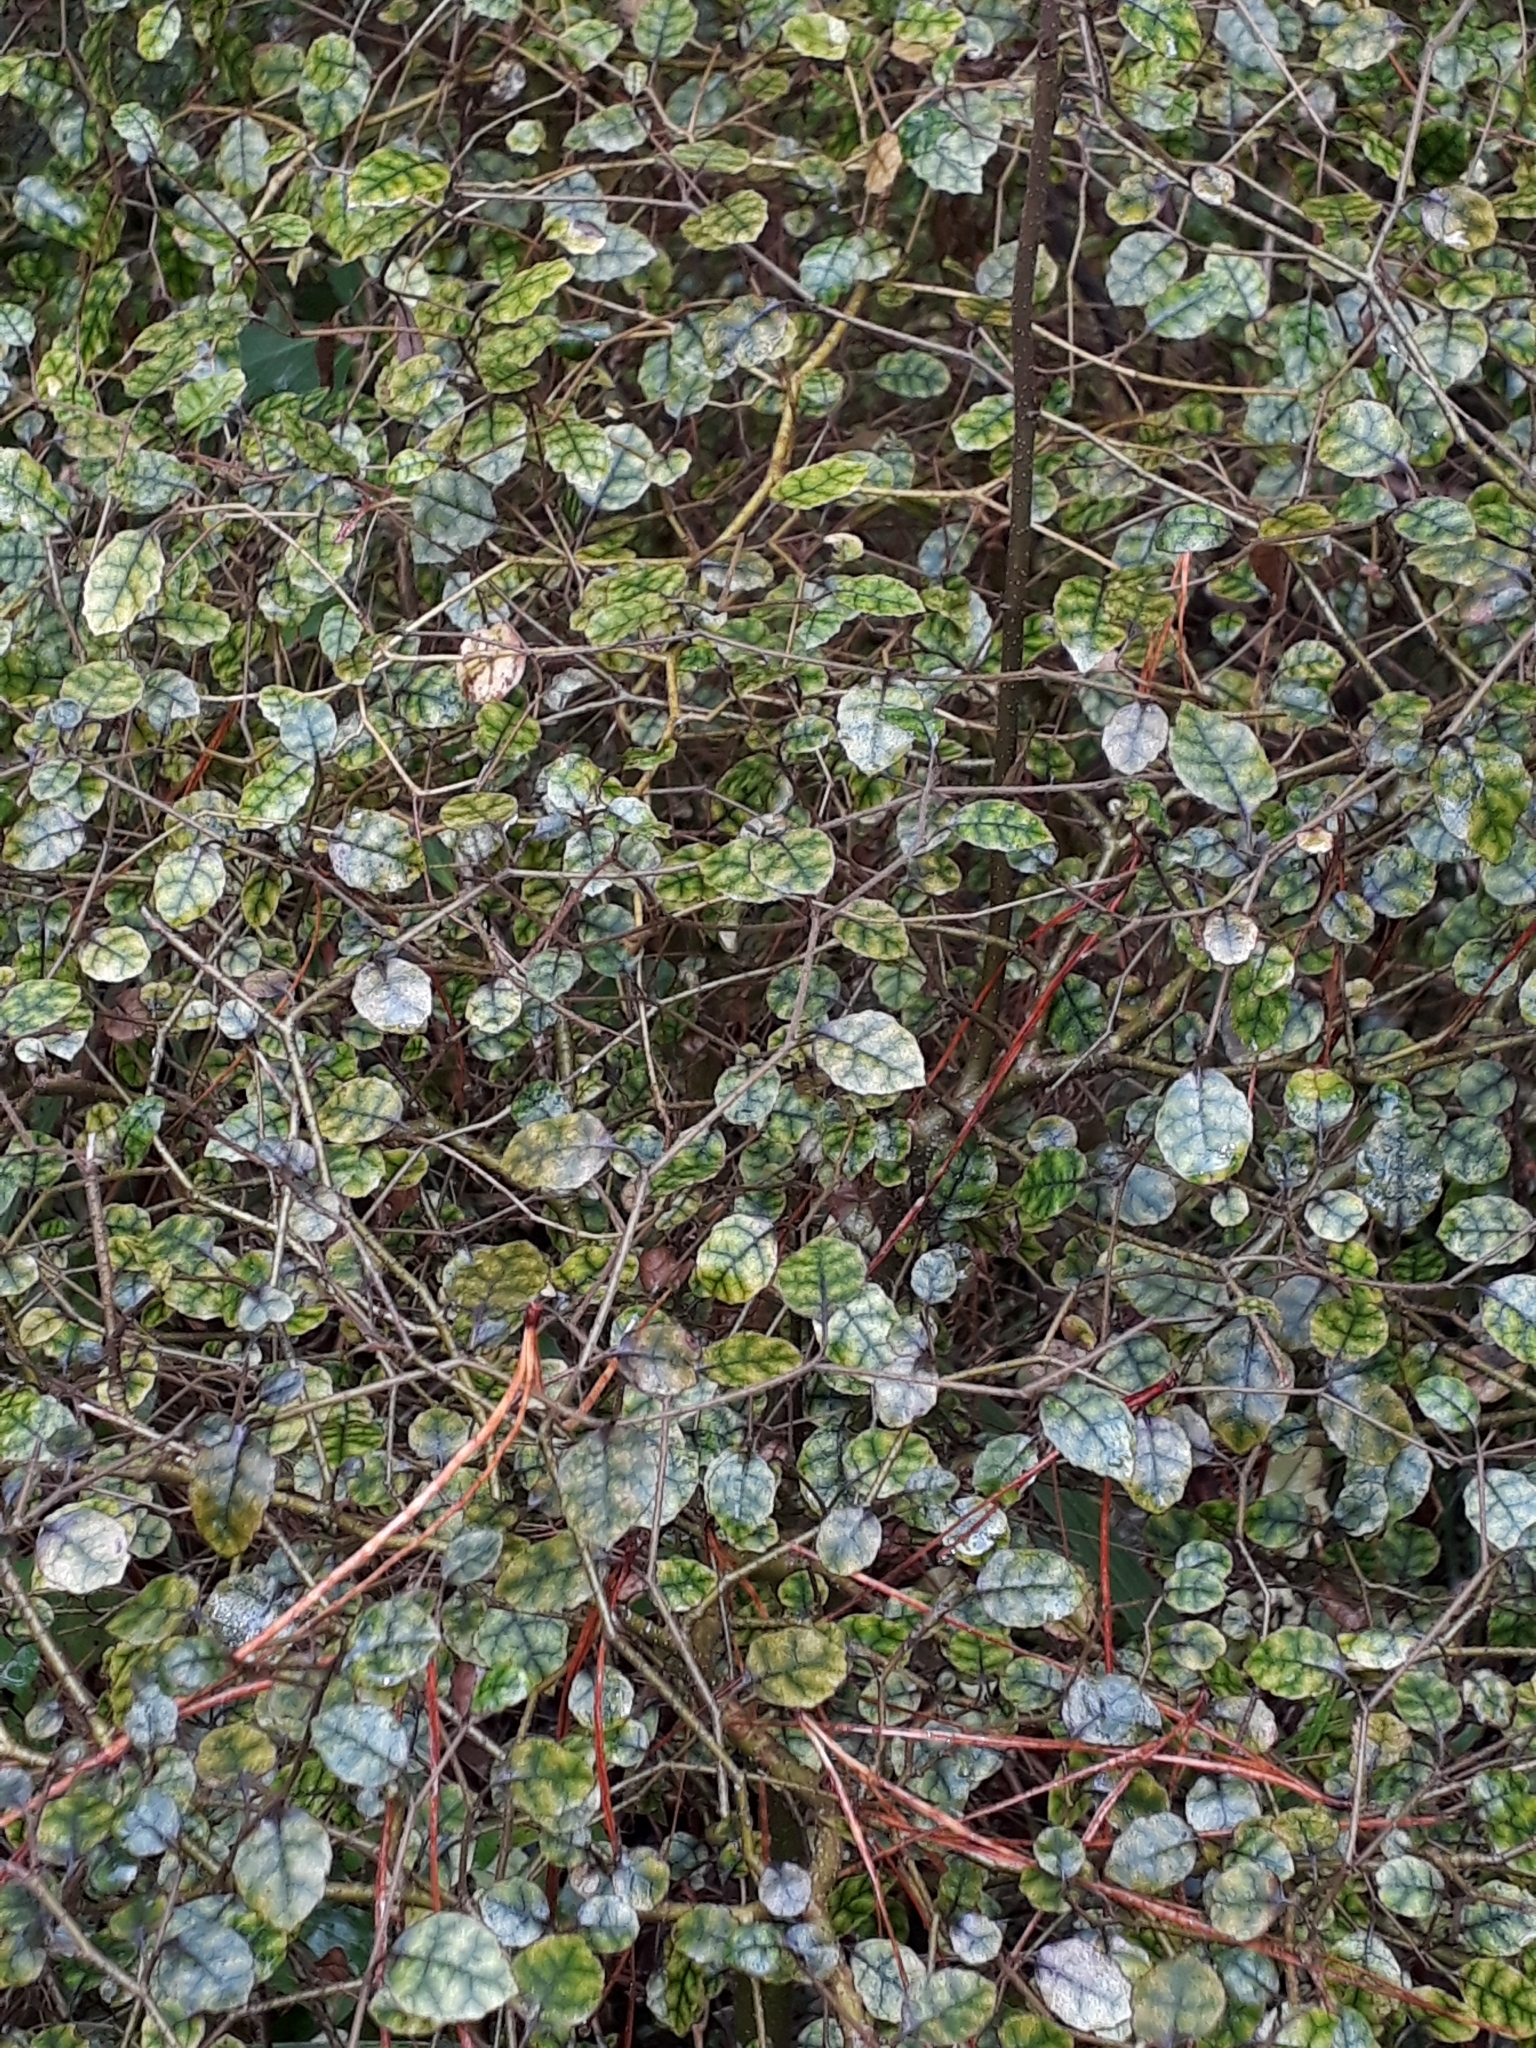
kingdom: Plantae
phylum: Tracheophyta
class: Magnoliopsida
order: Asterales
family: Rousseaceae
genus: Carpodetus
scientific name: Carpodetus serratus
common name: White mapau
